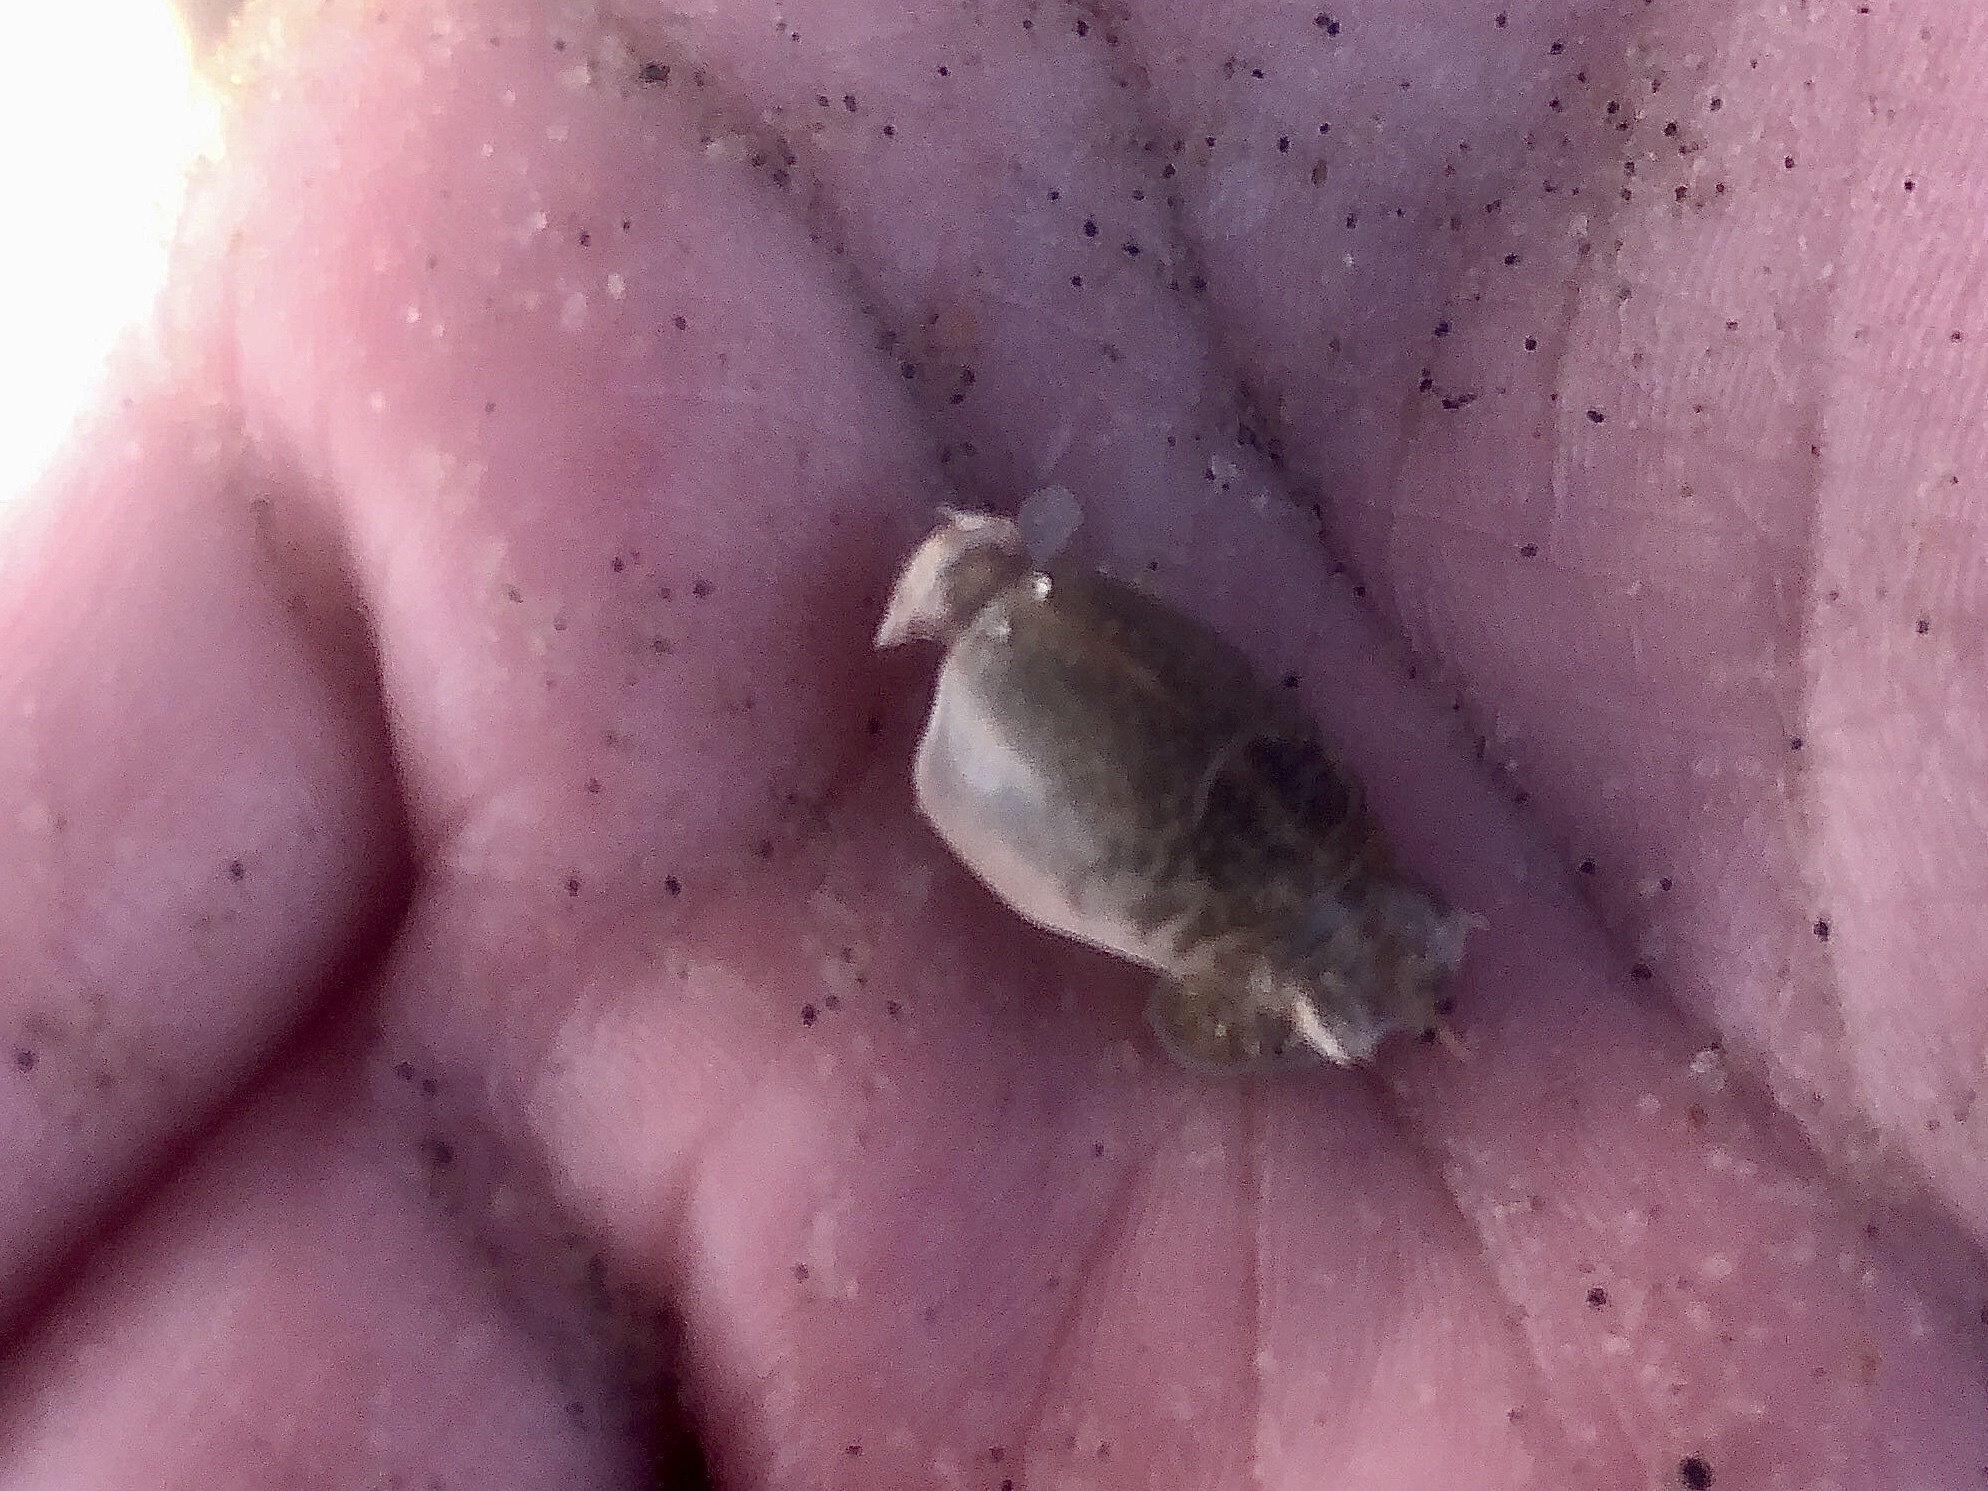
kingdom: Animalia
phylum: Arthropoda
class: Malacostraca
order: Decapoda
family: Hippidae
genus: Emerita
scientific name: Emerita talpoida
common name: Atlantic sand crab
